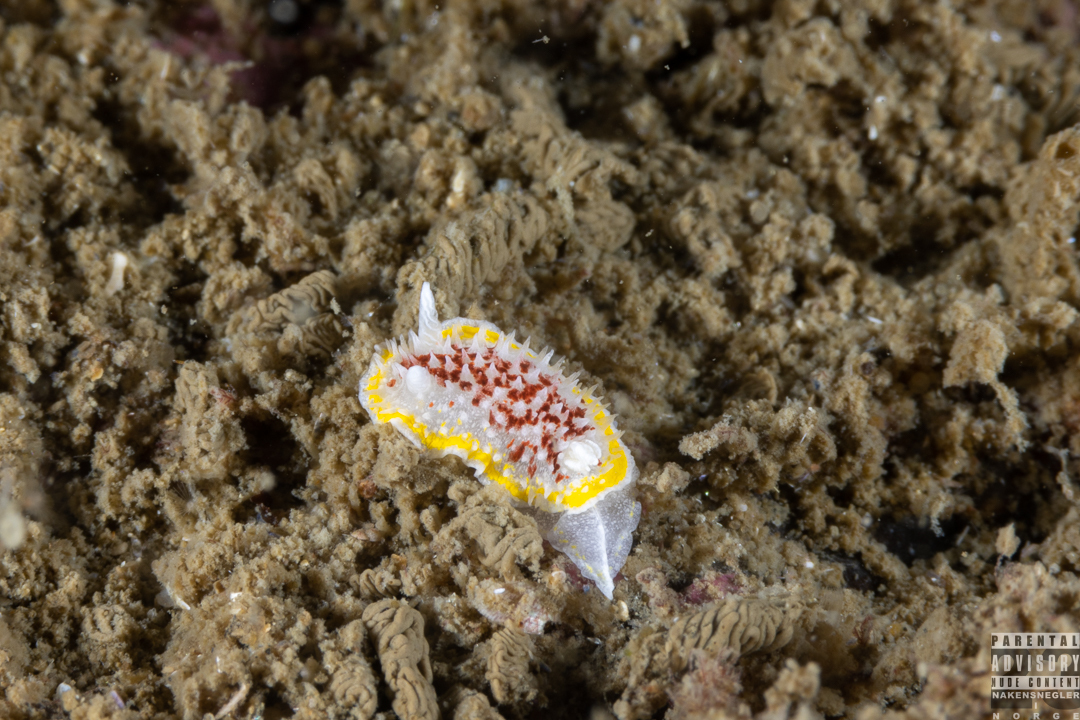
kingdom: Animalia
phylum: Mollusca
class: Gastropoda
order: Nudibranchia
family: Calycidorididae
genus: Diaphorodoris
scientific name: Diaphorodoris luteocincta
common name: Fried egg nudibranch
